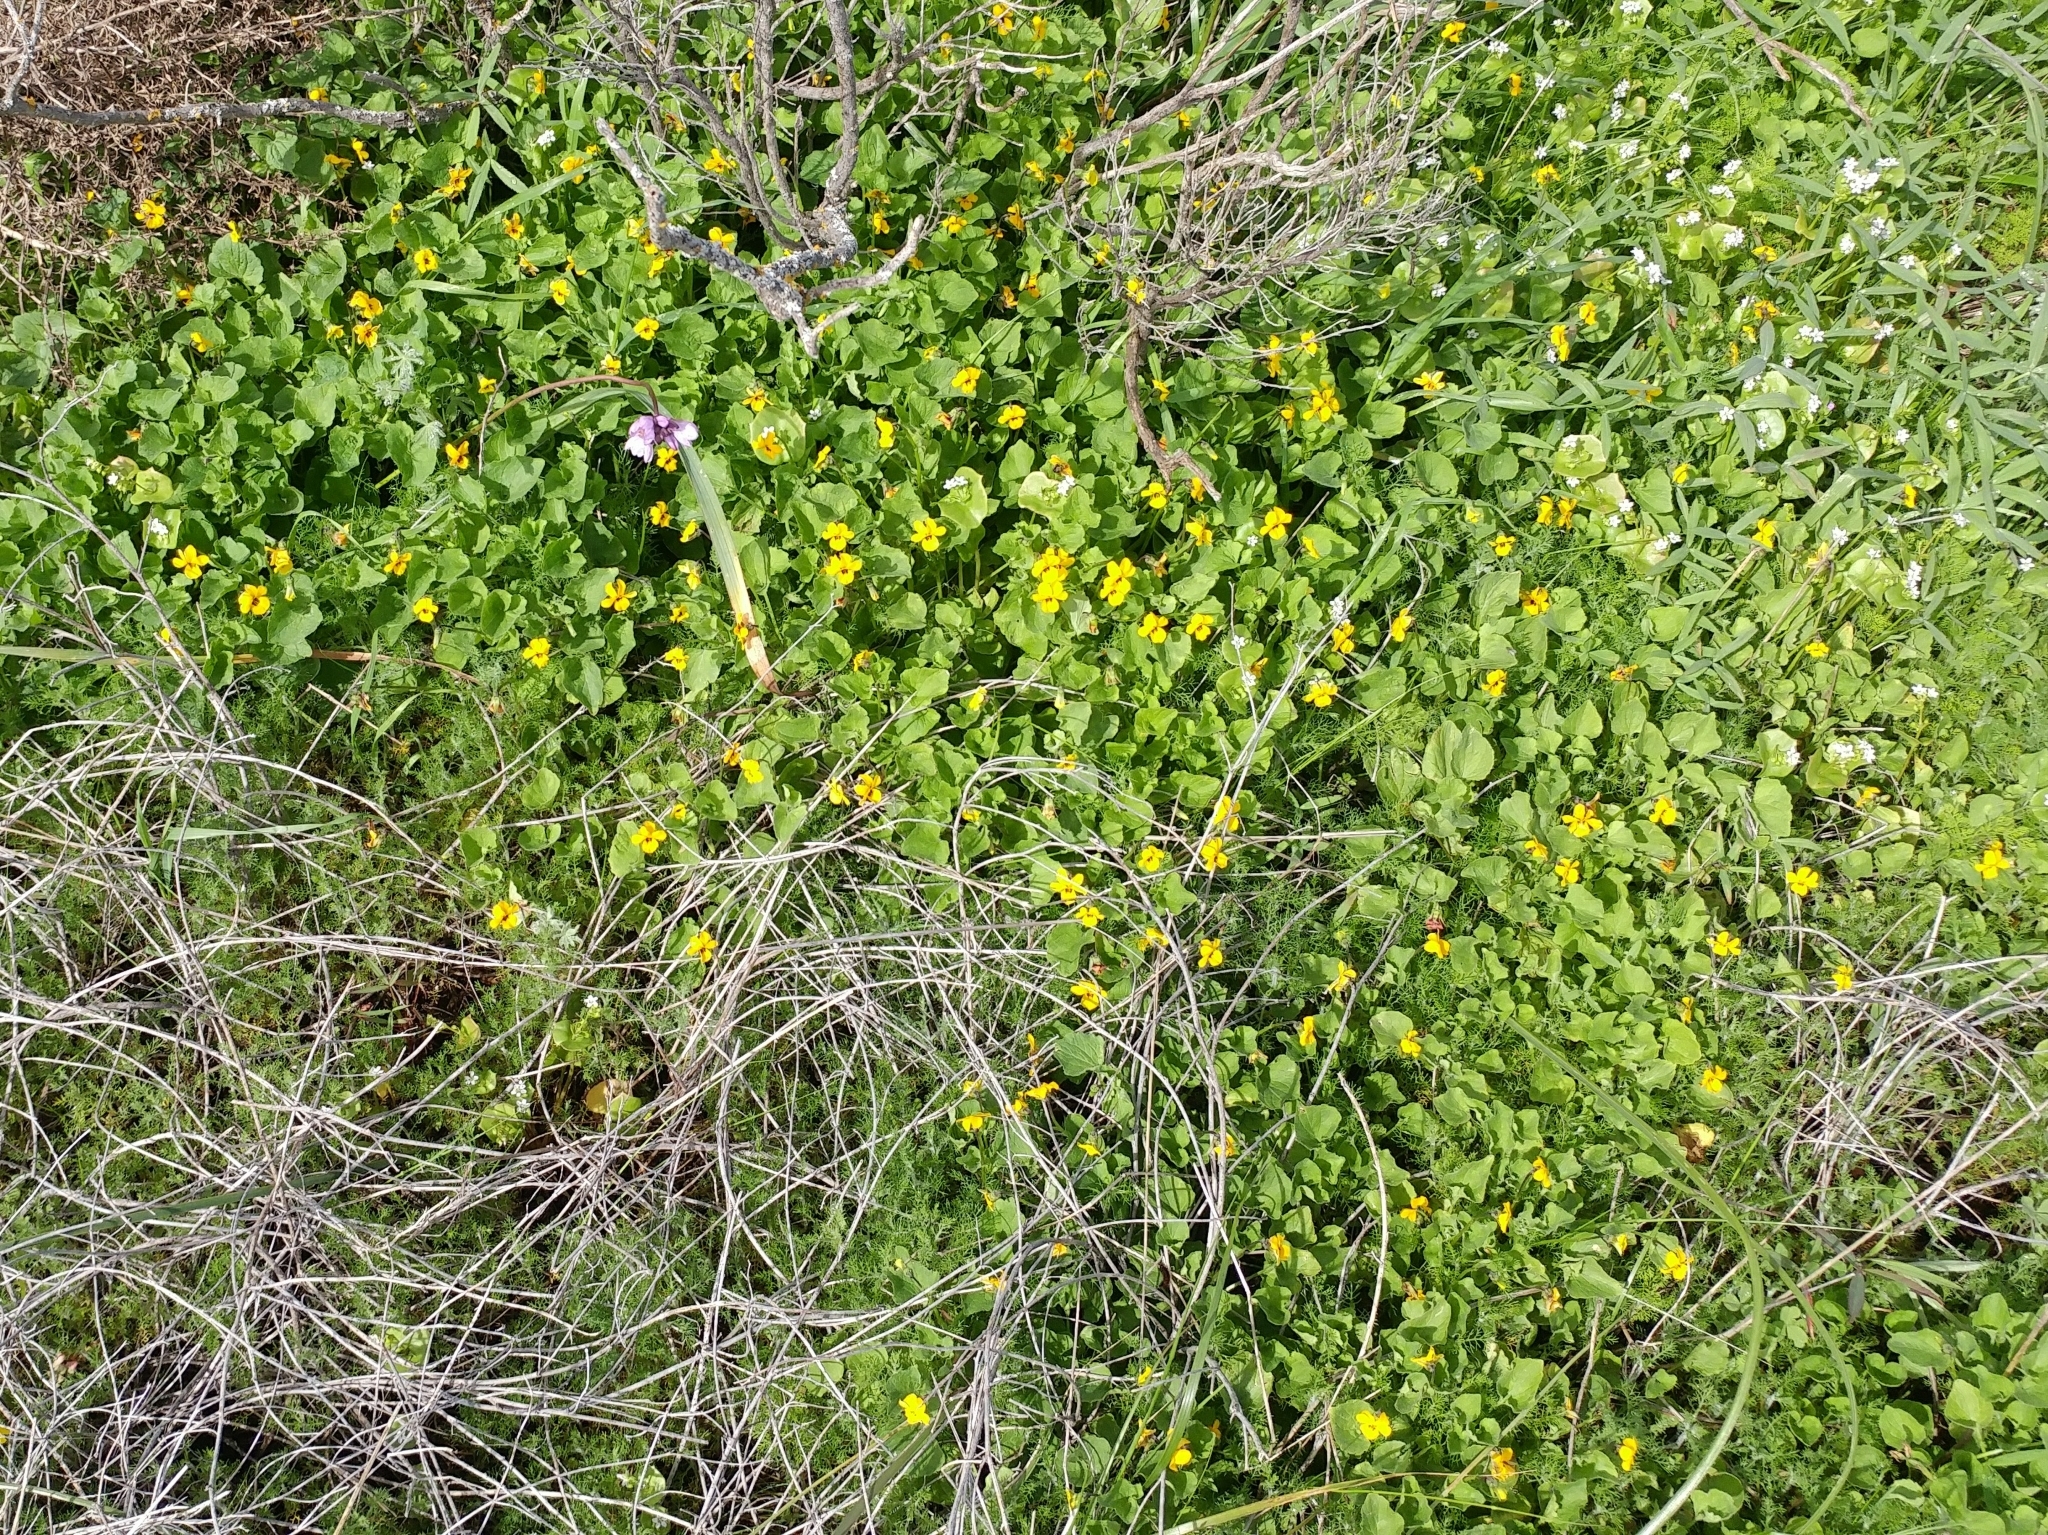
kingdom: Plantae
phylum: Tracheophyta
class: Magnoliopsida
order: Malpighiales
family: Violaceae
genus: Viola
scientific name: Viola pedunculata
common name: California golden violet
